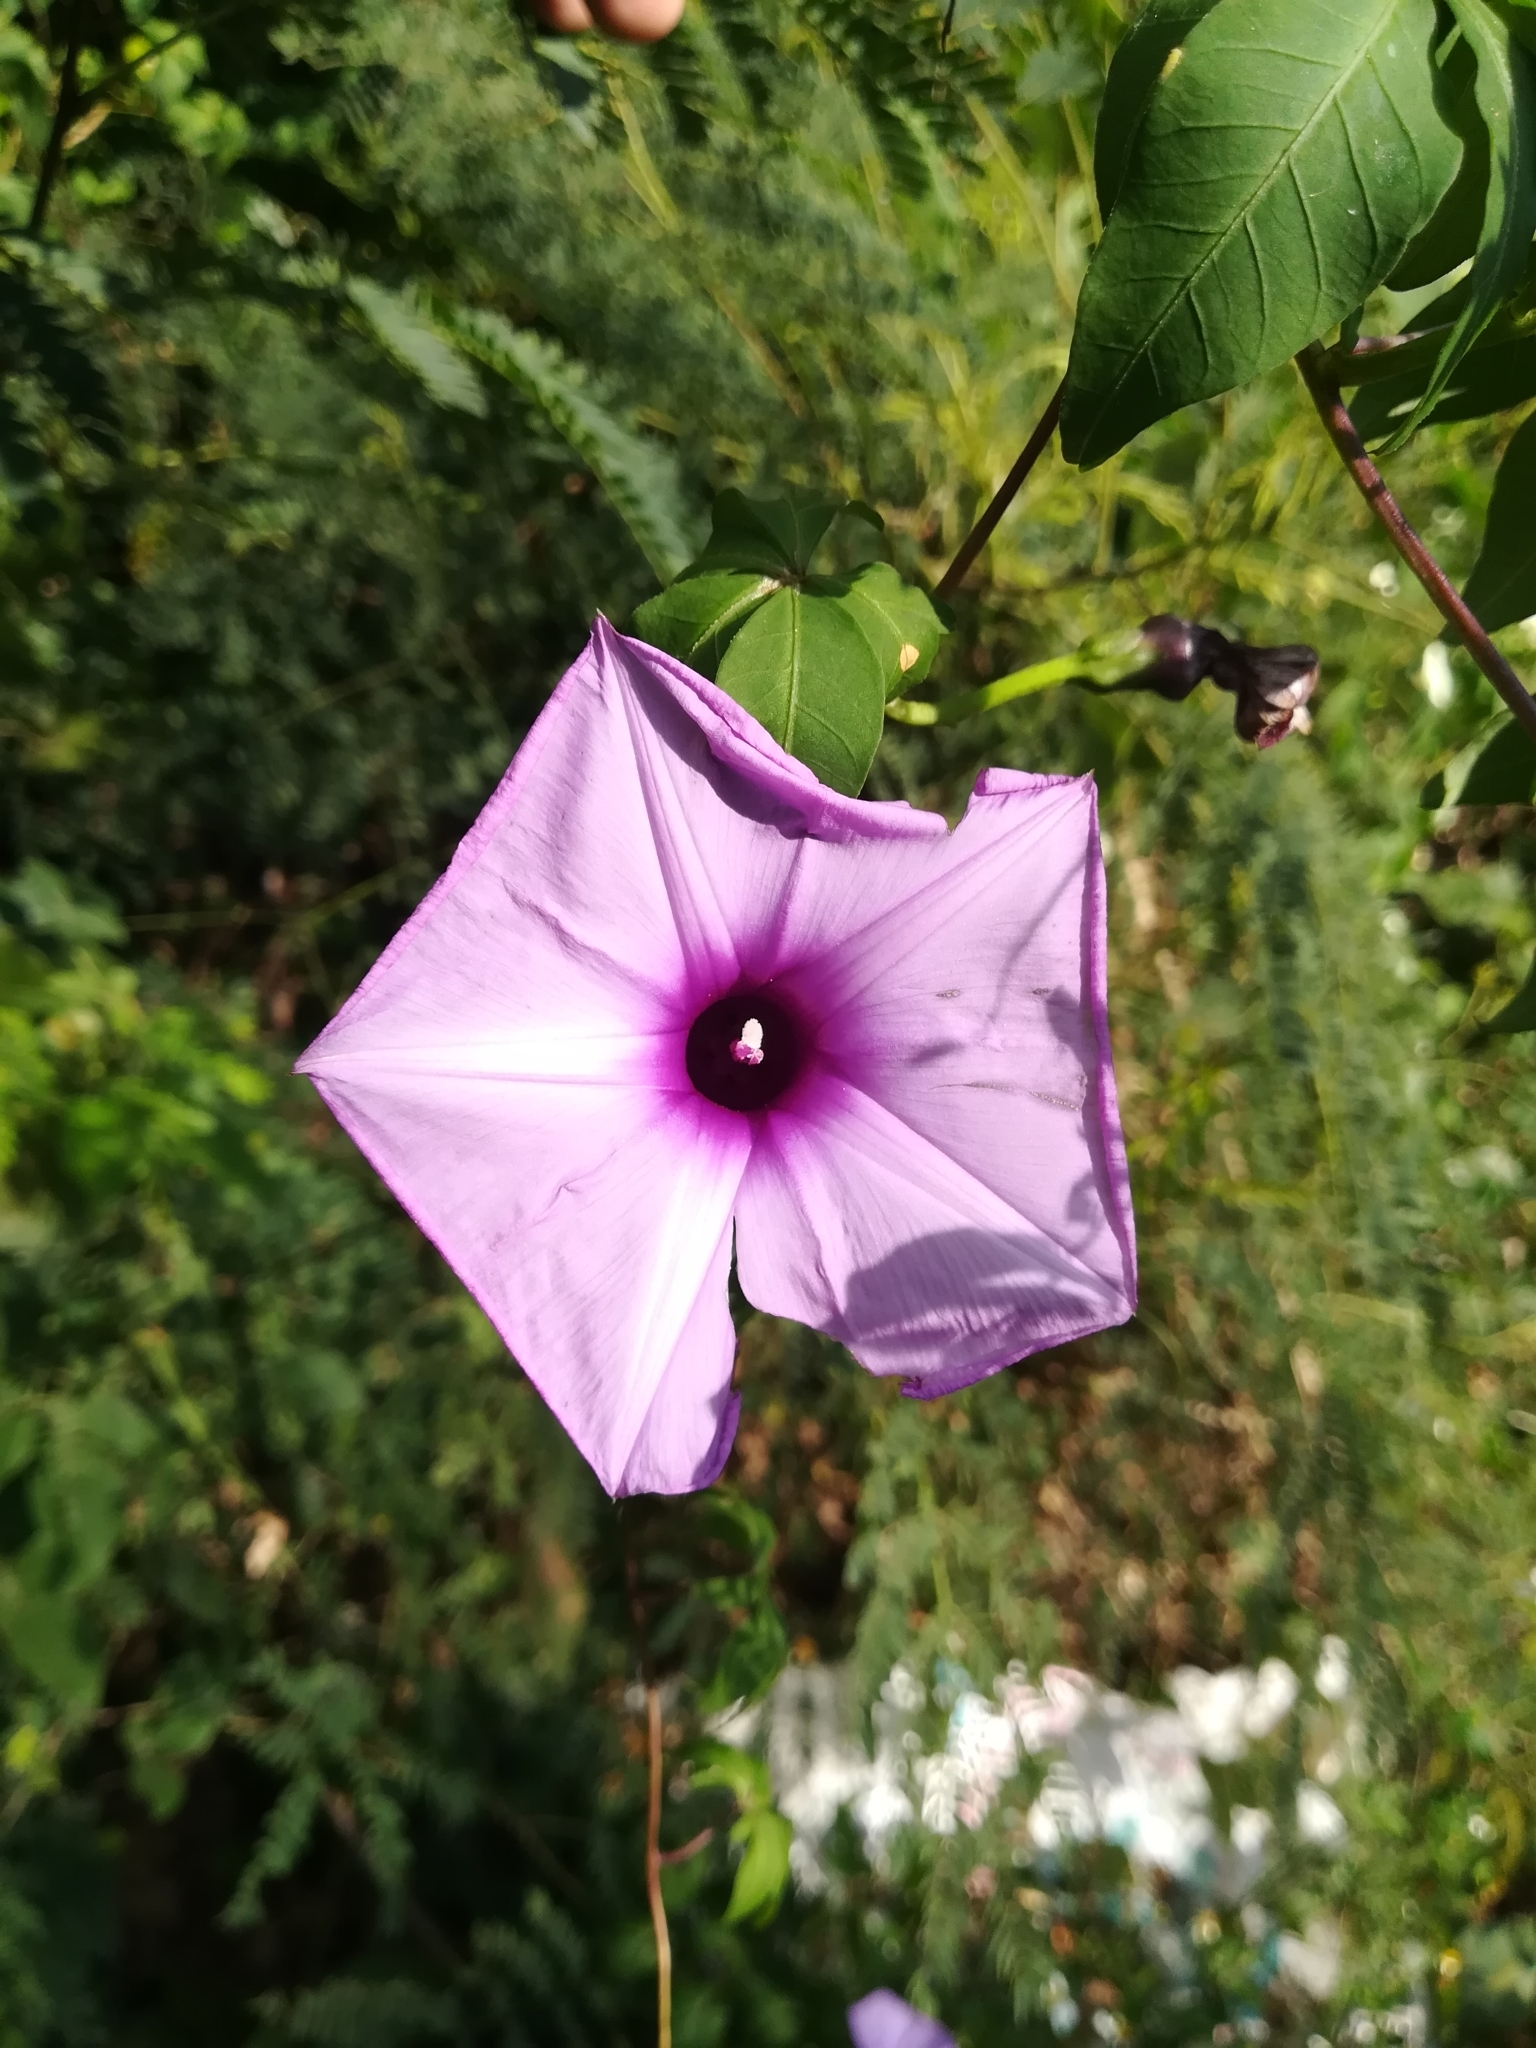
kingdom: Plantae
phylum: Tracheophyta
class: Magnoliopsida
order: Solanales
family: Convolvulaceae
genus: Ipomoea
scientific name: Ipomoea cairica
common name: Mile a minute vine
